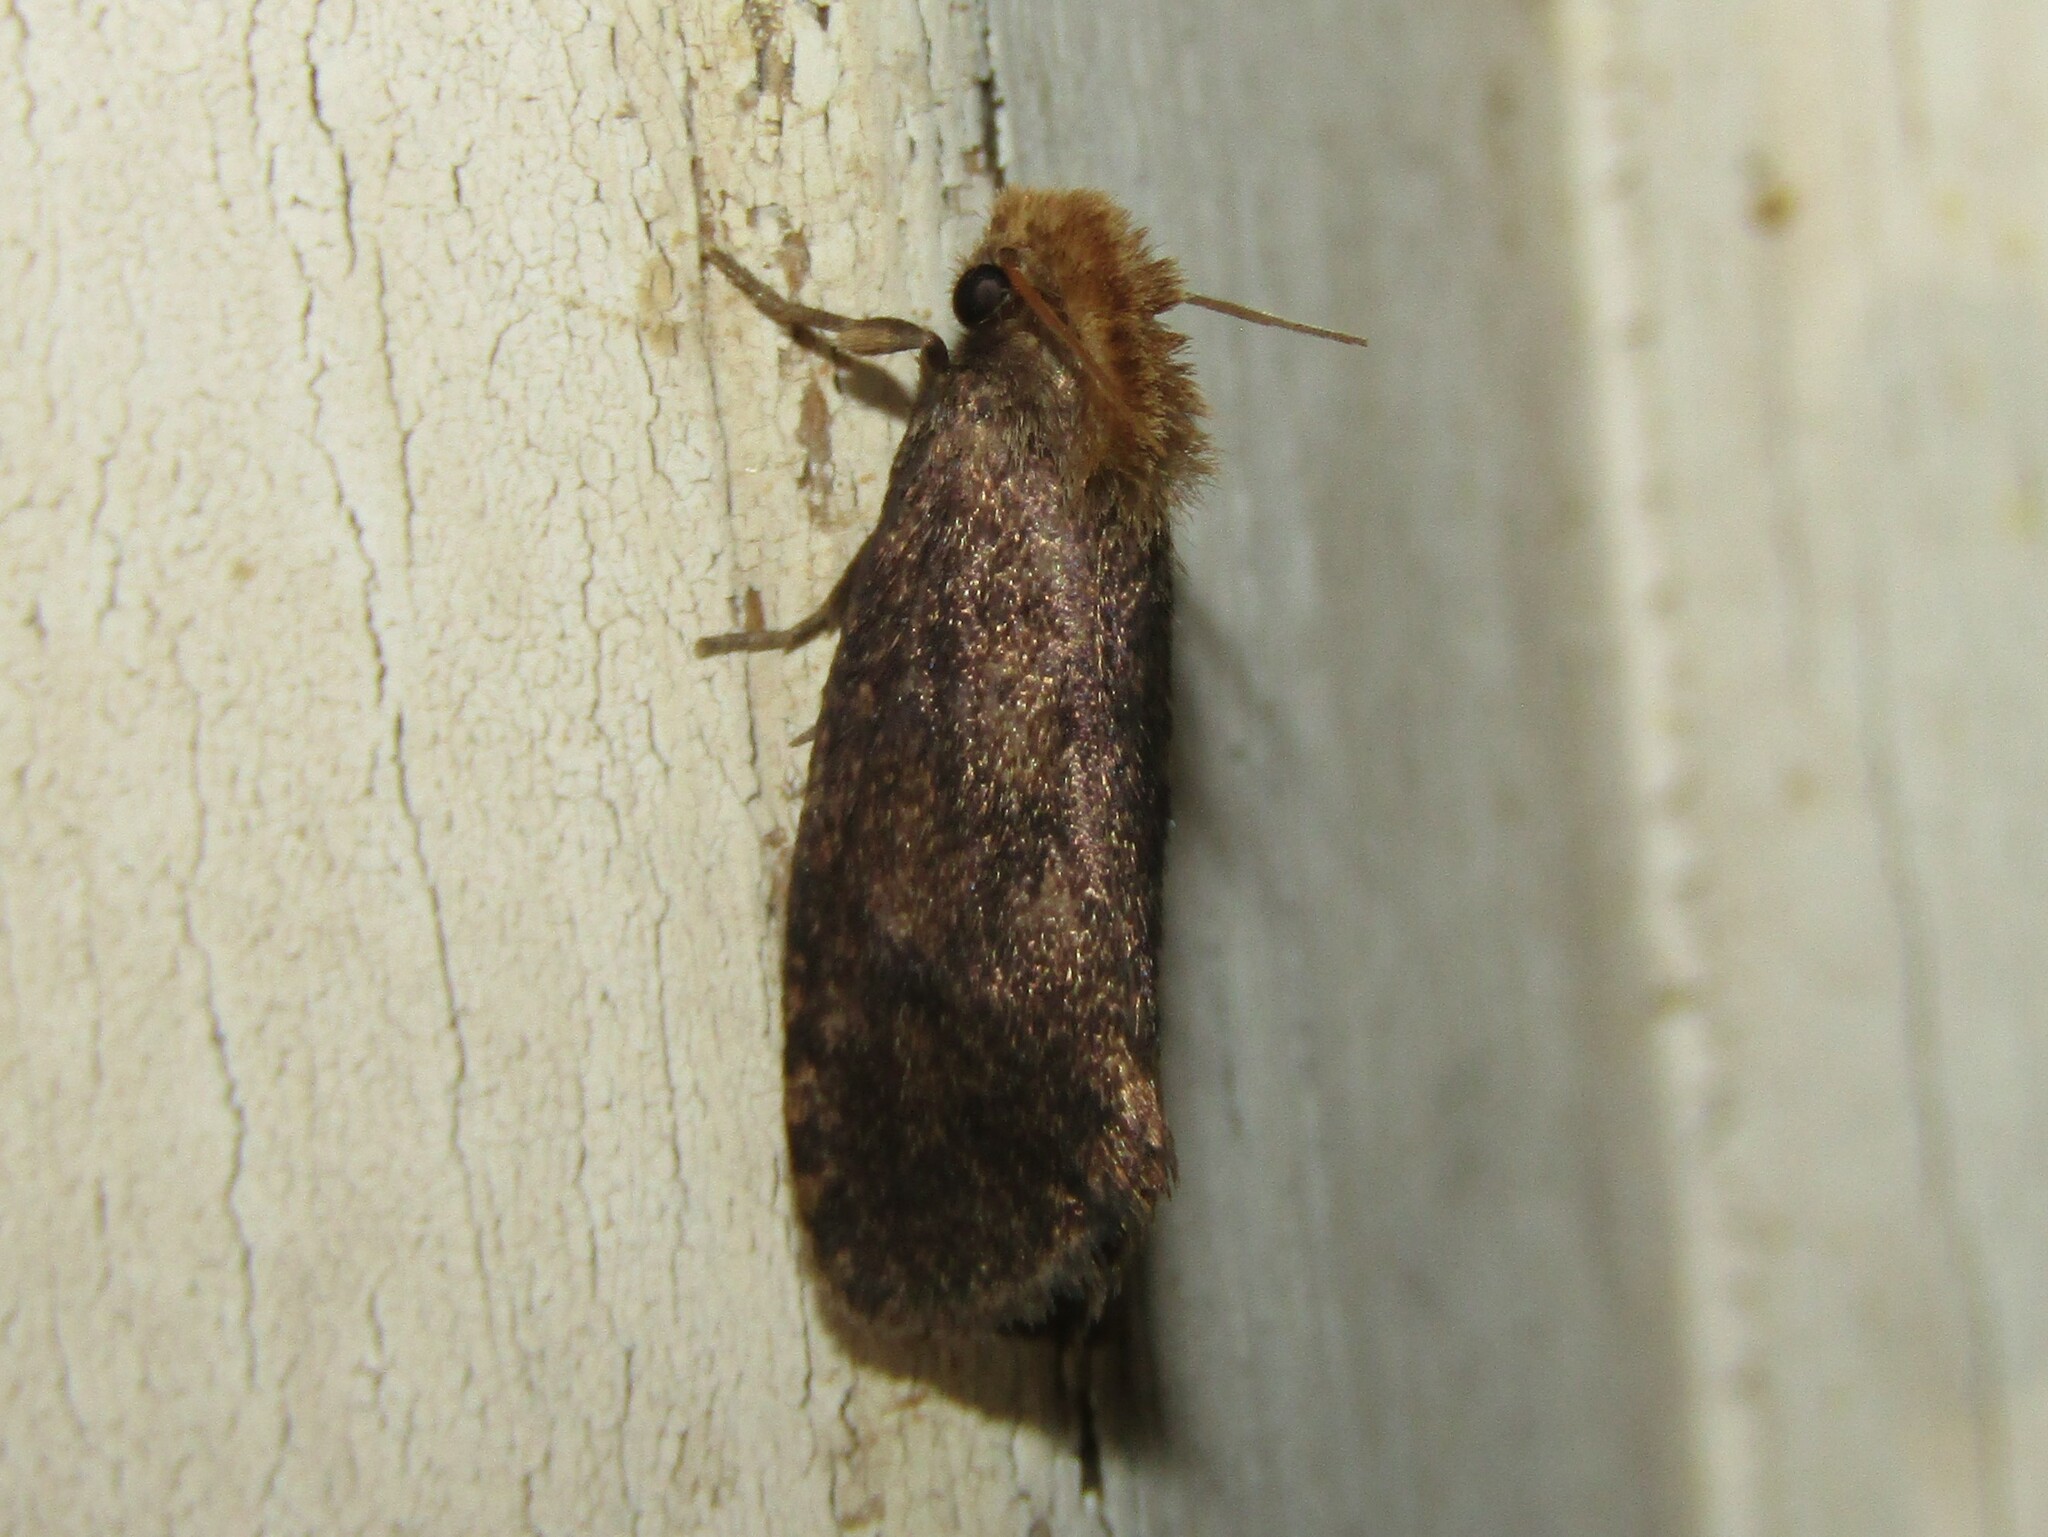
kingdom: Animalia
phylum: Arthropoda
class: Insecta
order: Lepidoptera
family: Tineidae
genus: Acrolophus
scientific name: Acrolophus propinqua
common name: Walsingham's grass tubeworm moth
